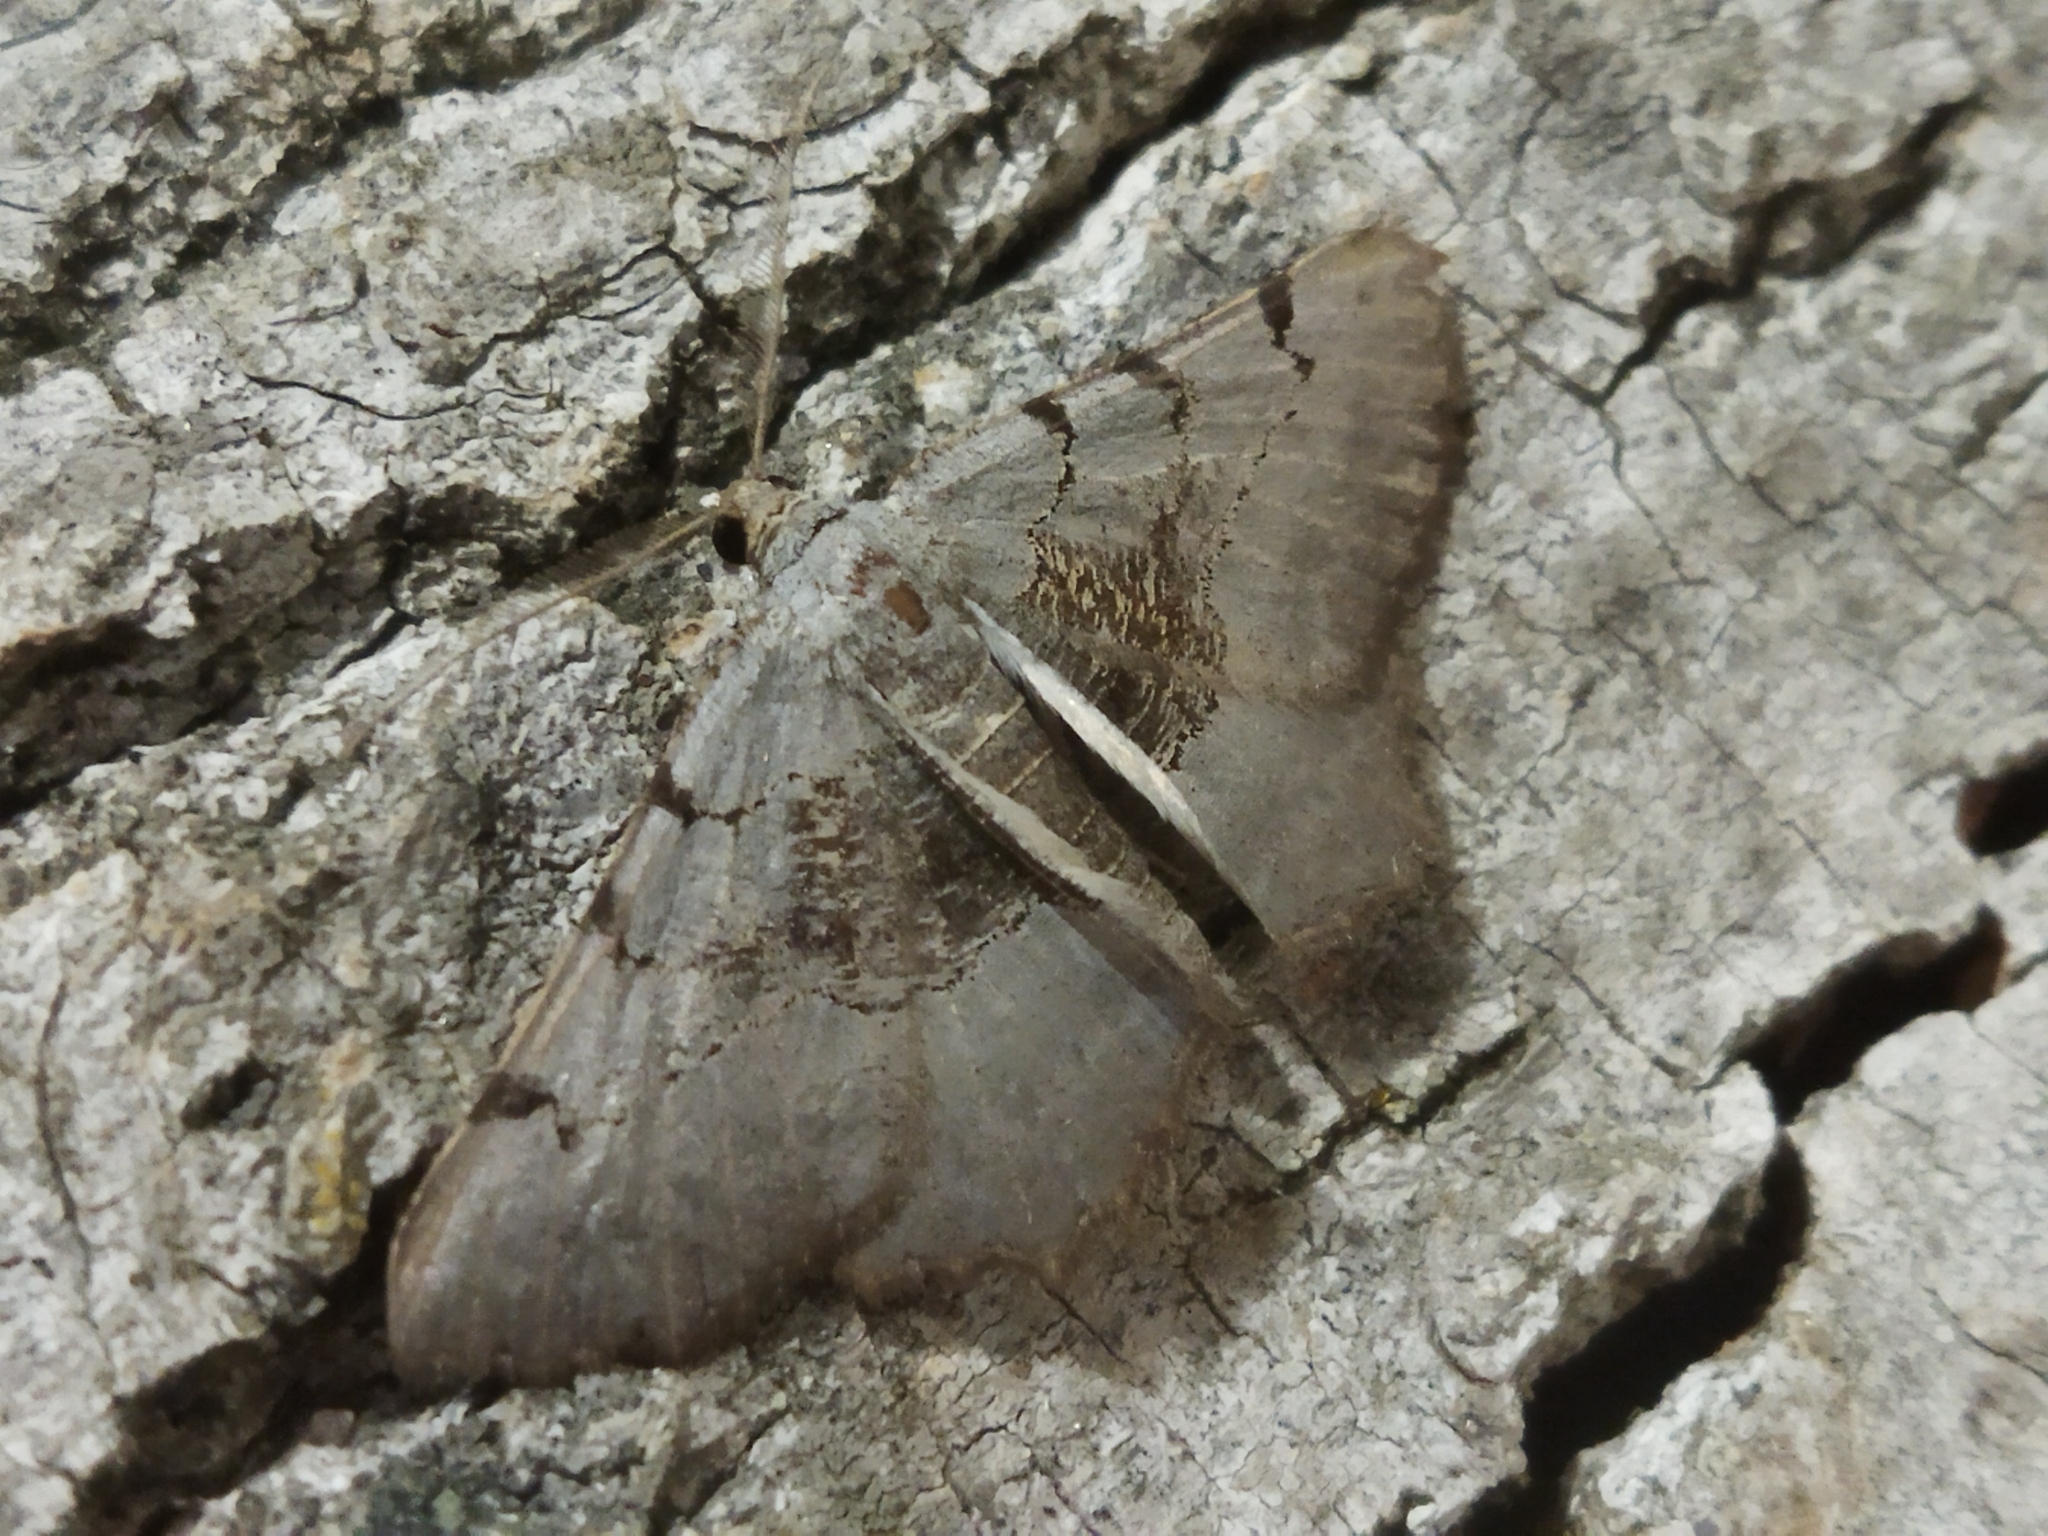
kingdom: Animalia
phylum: Arthropoda
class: Insecta
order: Lepidoptera
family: Geometridae
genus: Neognopharmia
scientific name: Neognopharmia stevenaria
